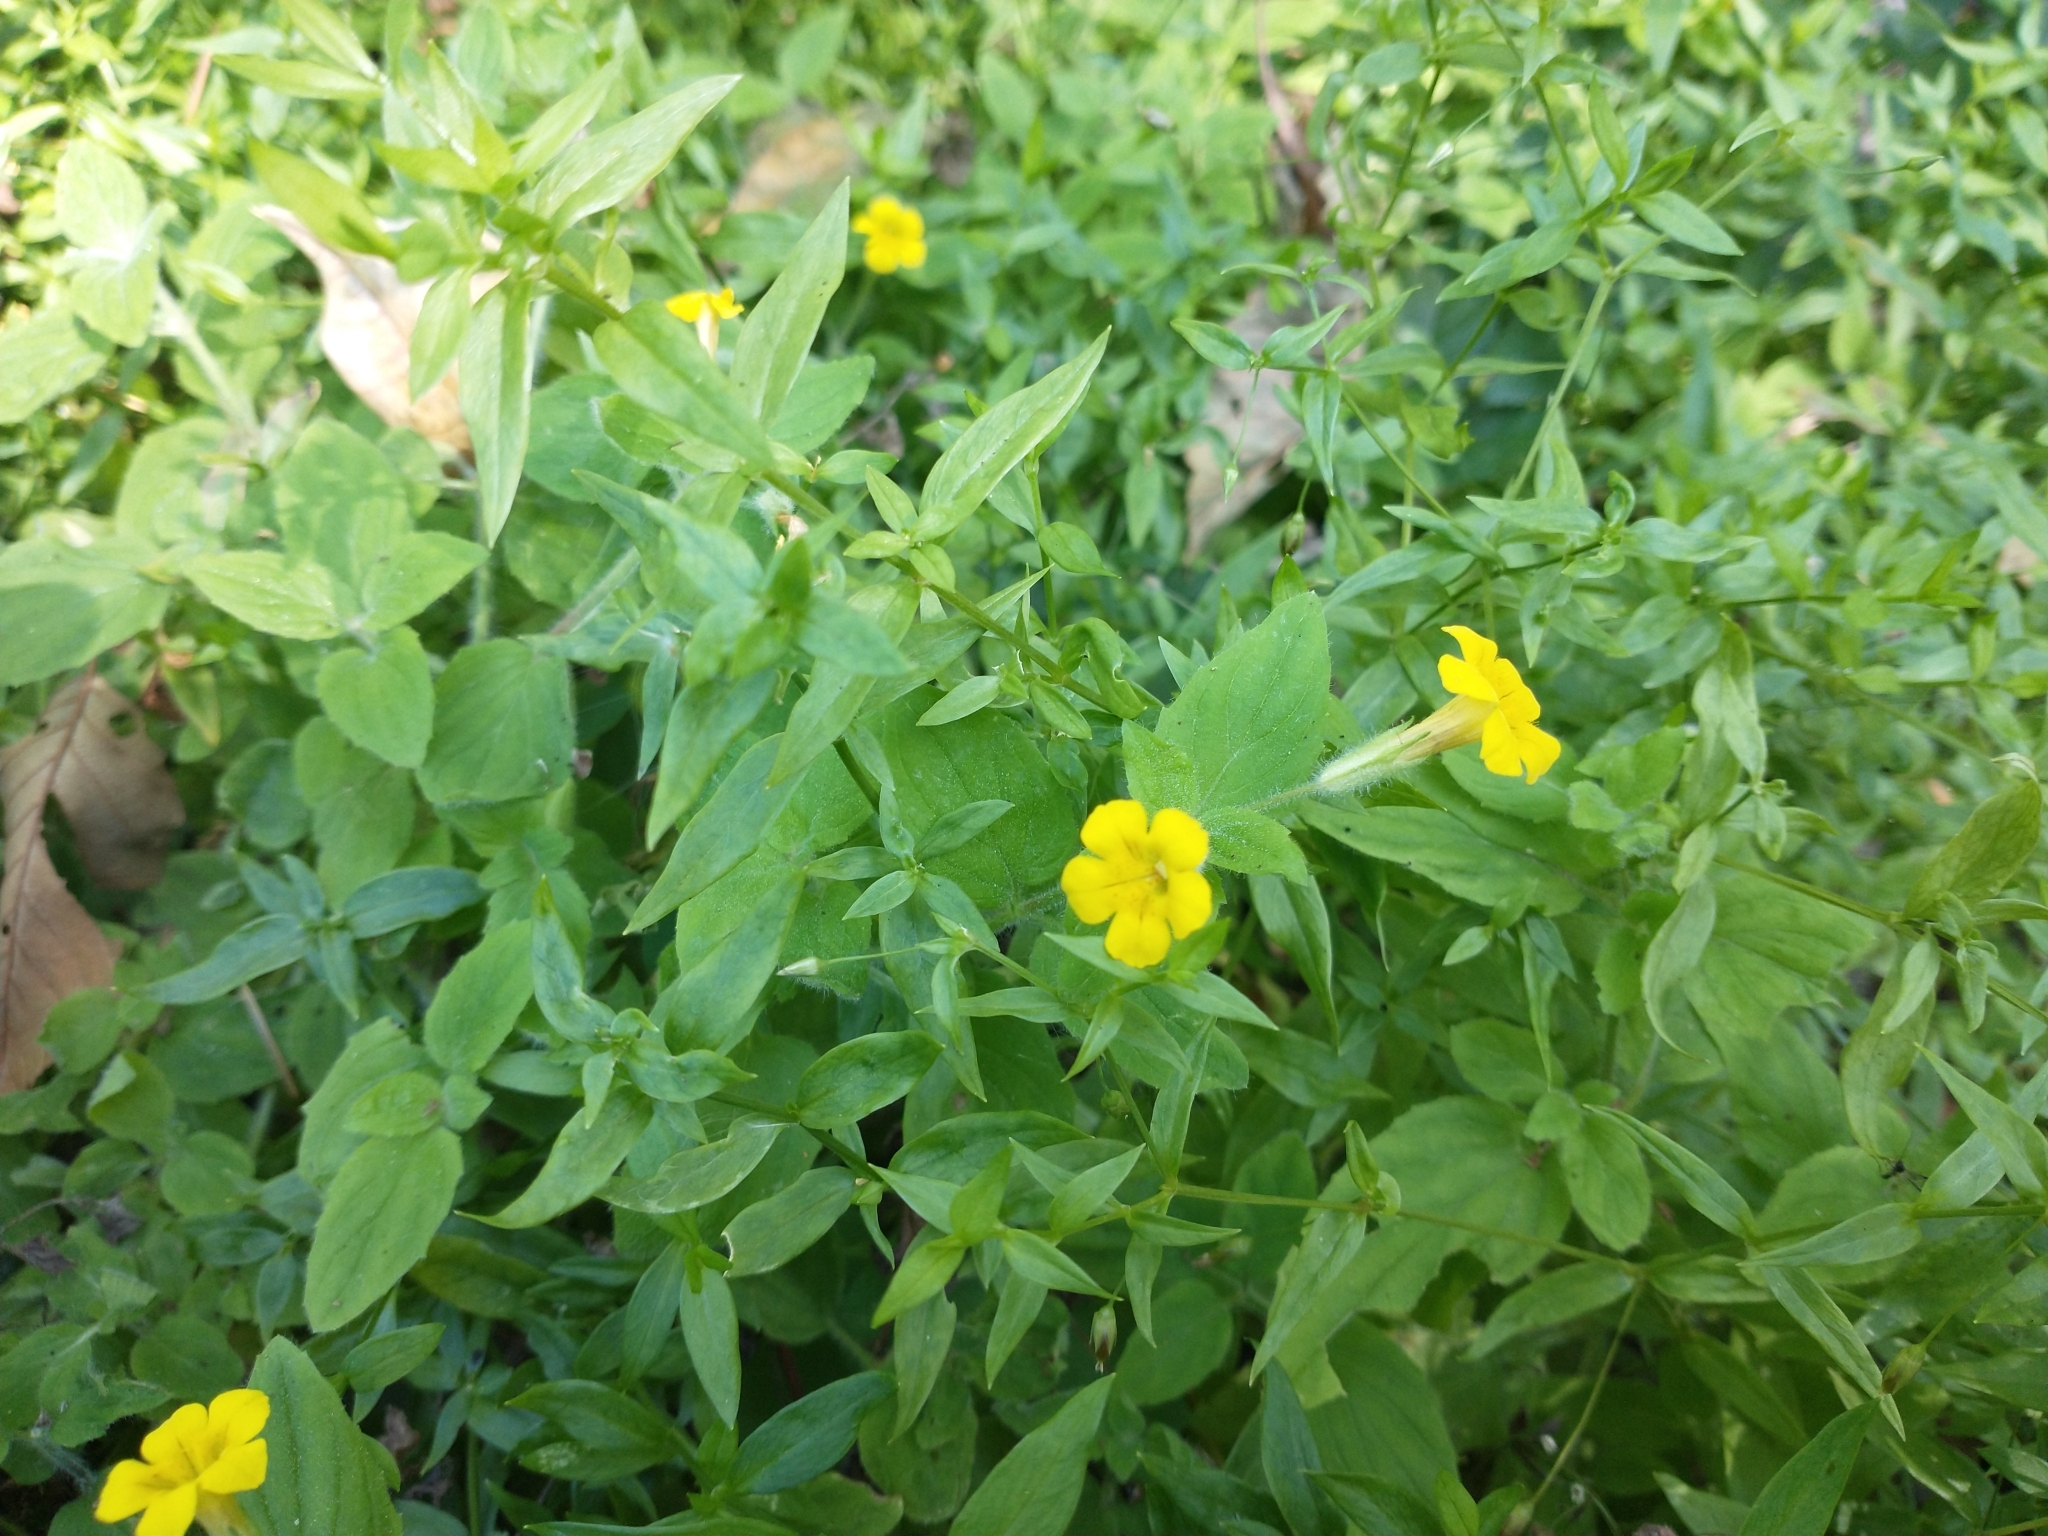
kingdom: Plantae
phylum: Tracheophyta
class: Magnoliopsida
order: Lamiales
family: Phrymaceae
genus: Erythranthe
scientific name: Erythranthe moschata
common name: Muskflower
